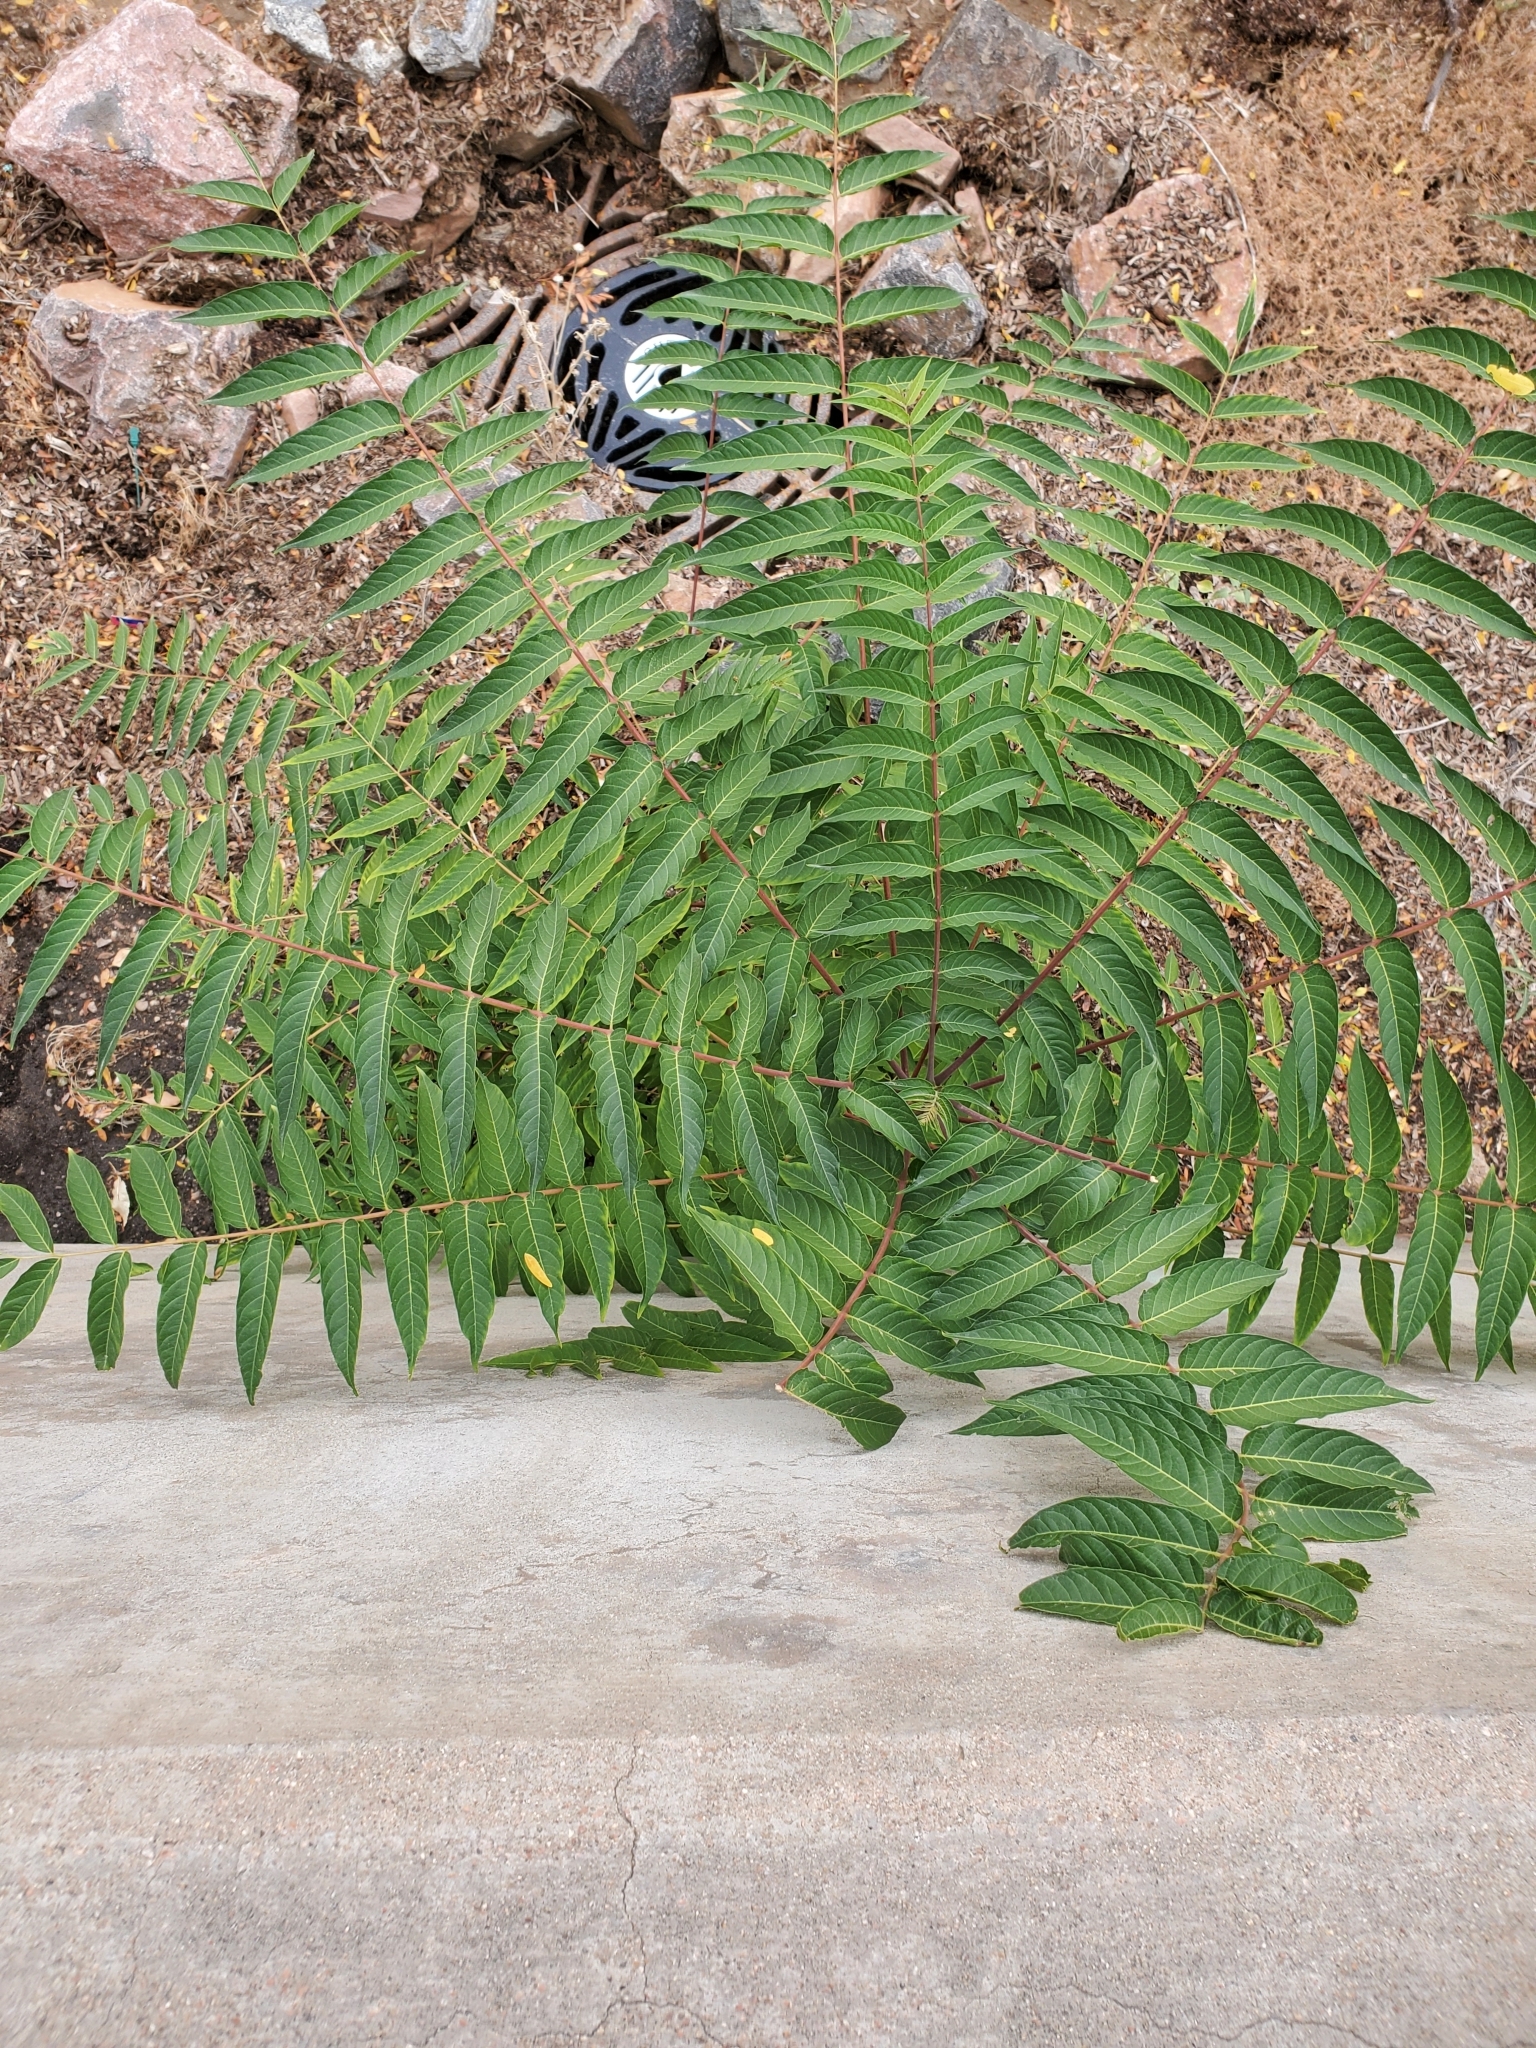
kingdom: Plantae
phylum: Tracheophyta
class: Magnoliopsida
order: Sapindales
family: Simaroubaceae
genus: Ailanthus
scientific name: Ailanthus altissima
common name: Tree-of-heaven
